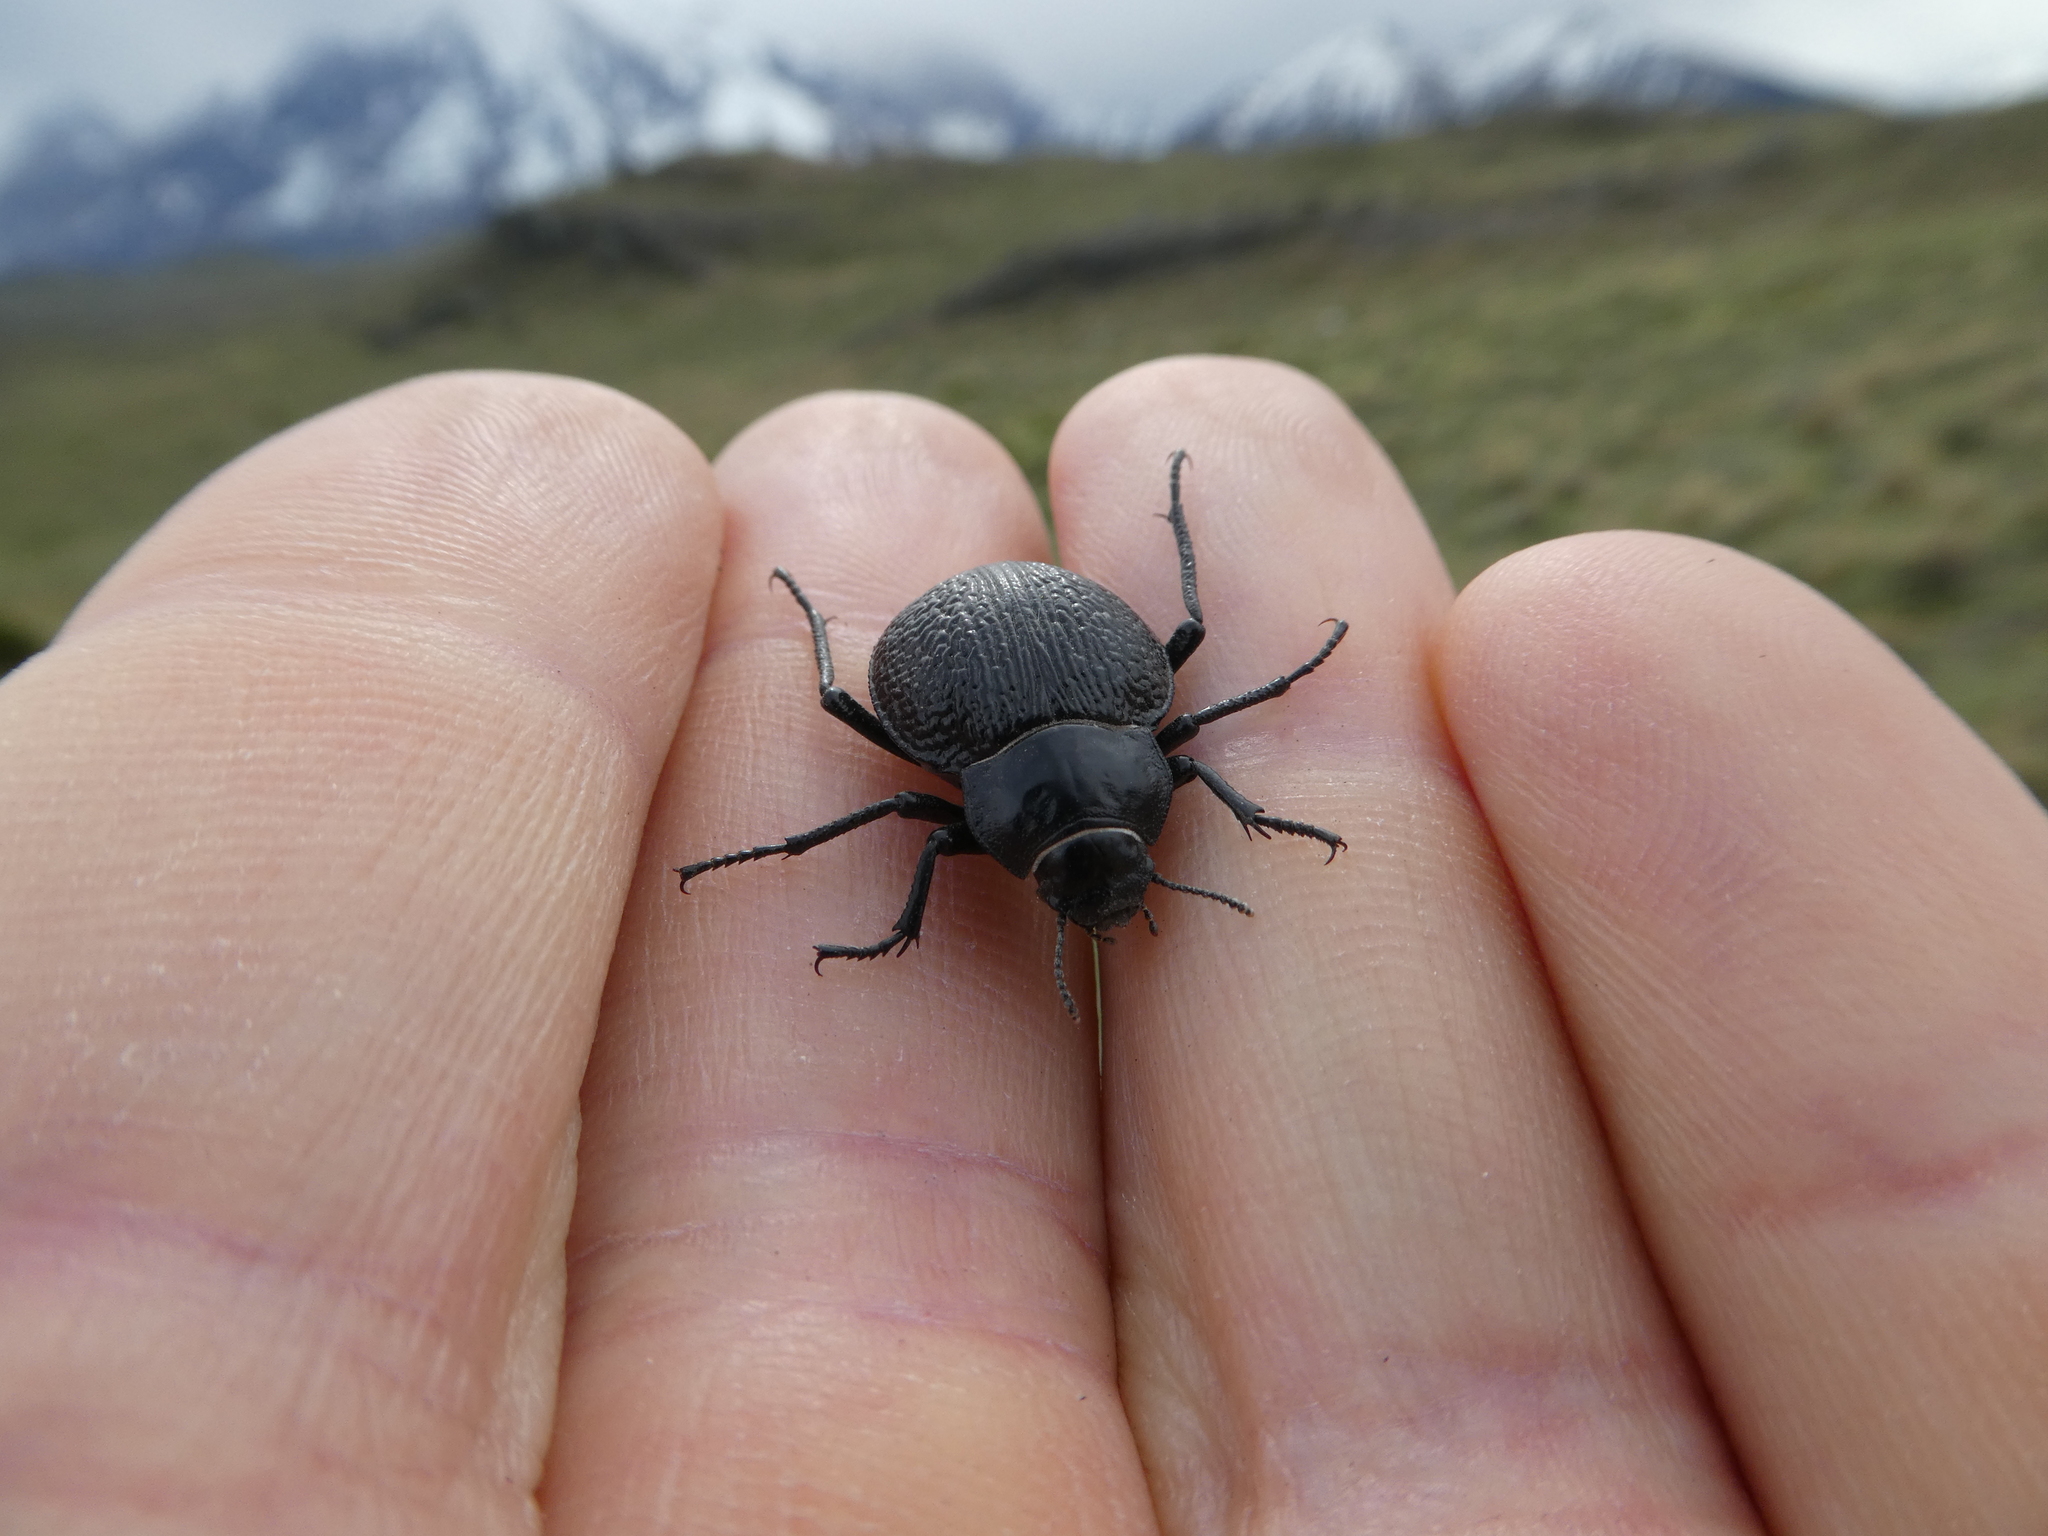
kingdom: Animalia
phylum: Arthropoda
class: Insecta
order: Coleoptera
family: Tenebrionidae
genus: Nyctelia
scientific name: Nyctelia
